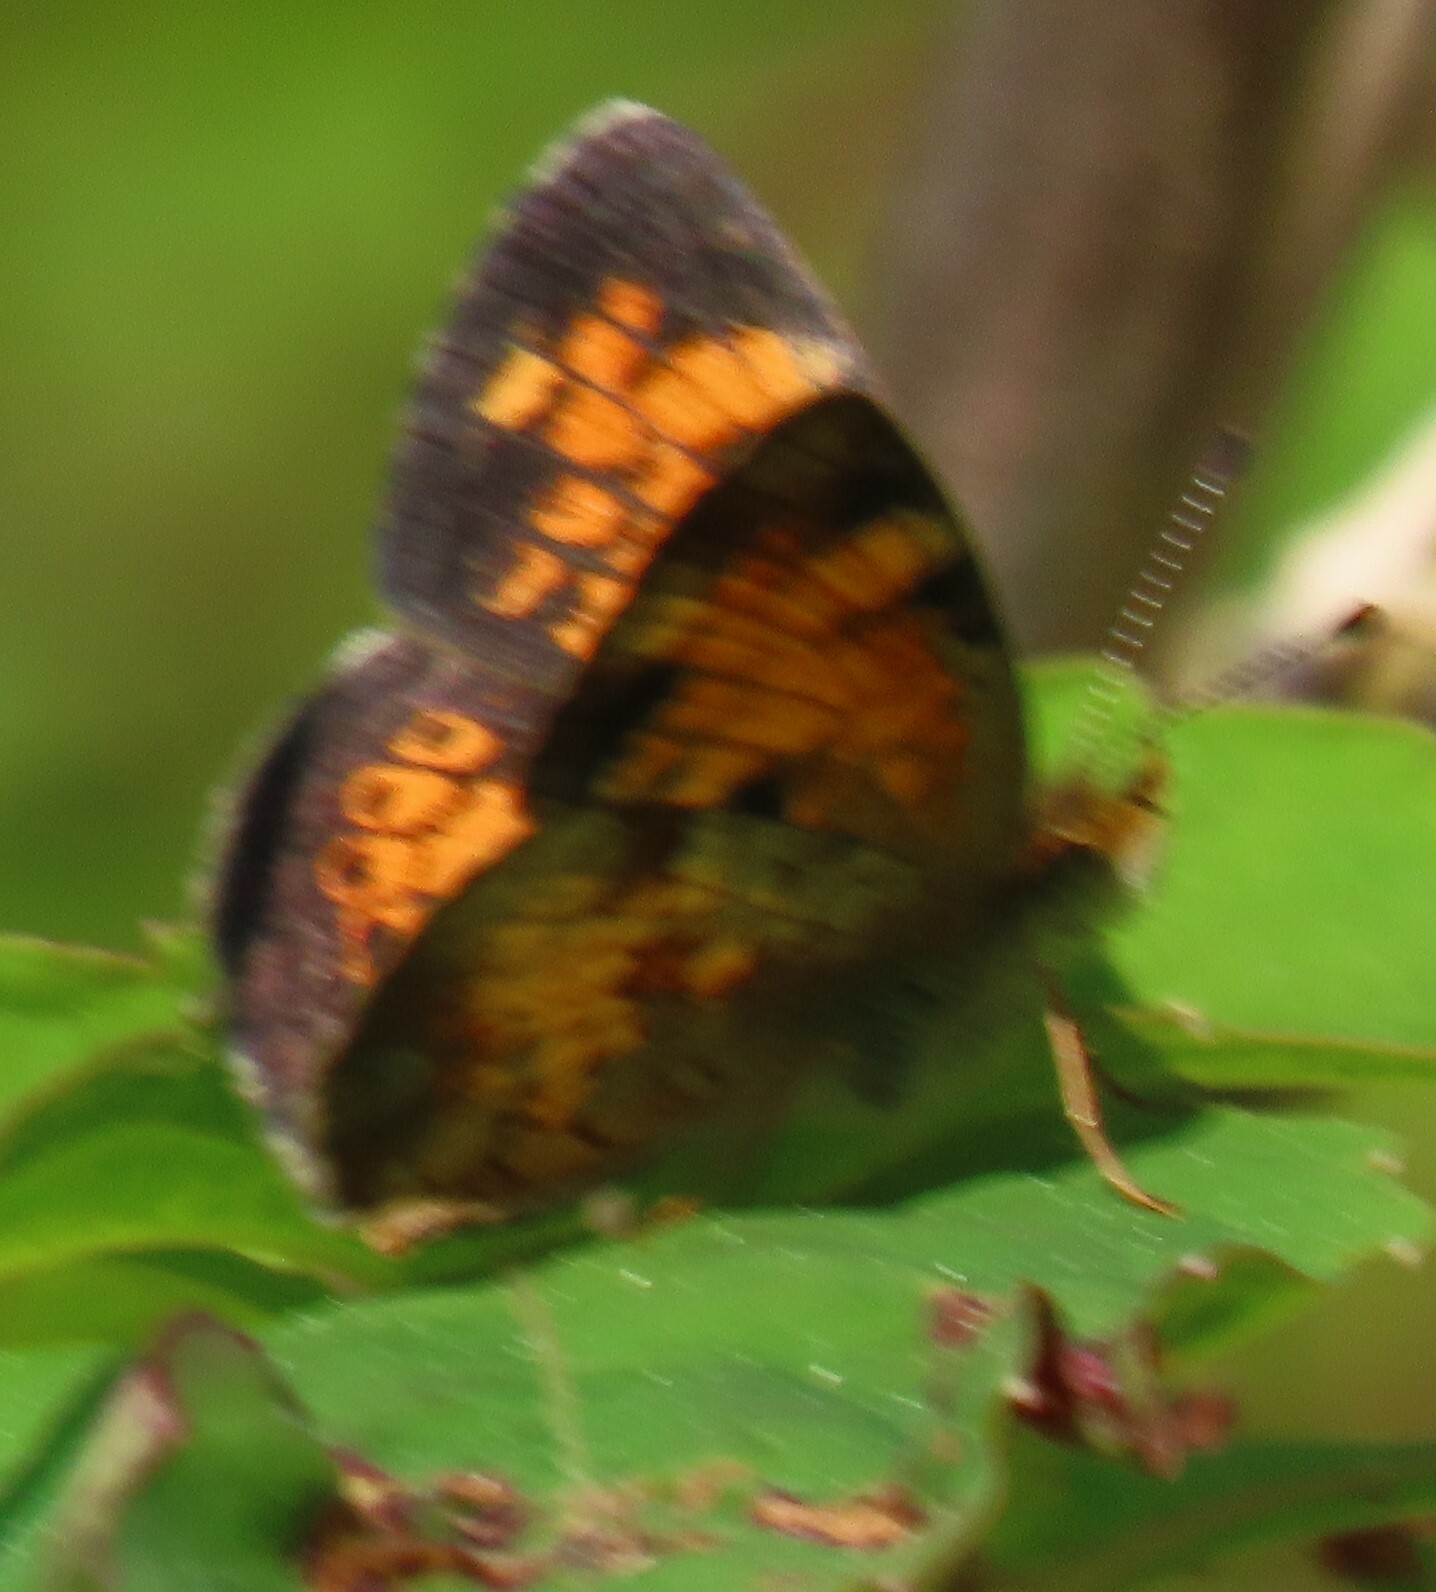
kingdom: Animalia
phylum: Arthropoda
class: Insecta
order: Lepidoptera
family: Nymphalidae
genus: Phyciodes
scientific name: Phyciodes tharos
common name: Pearl crescent
